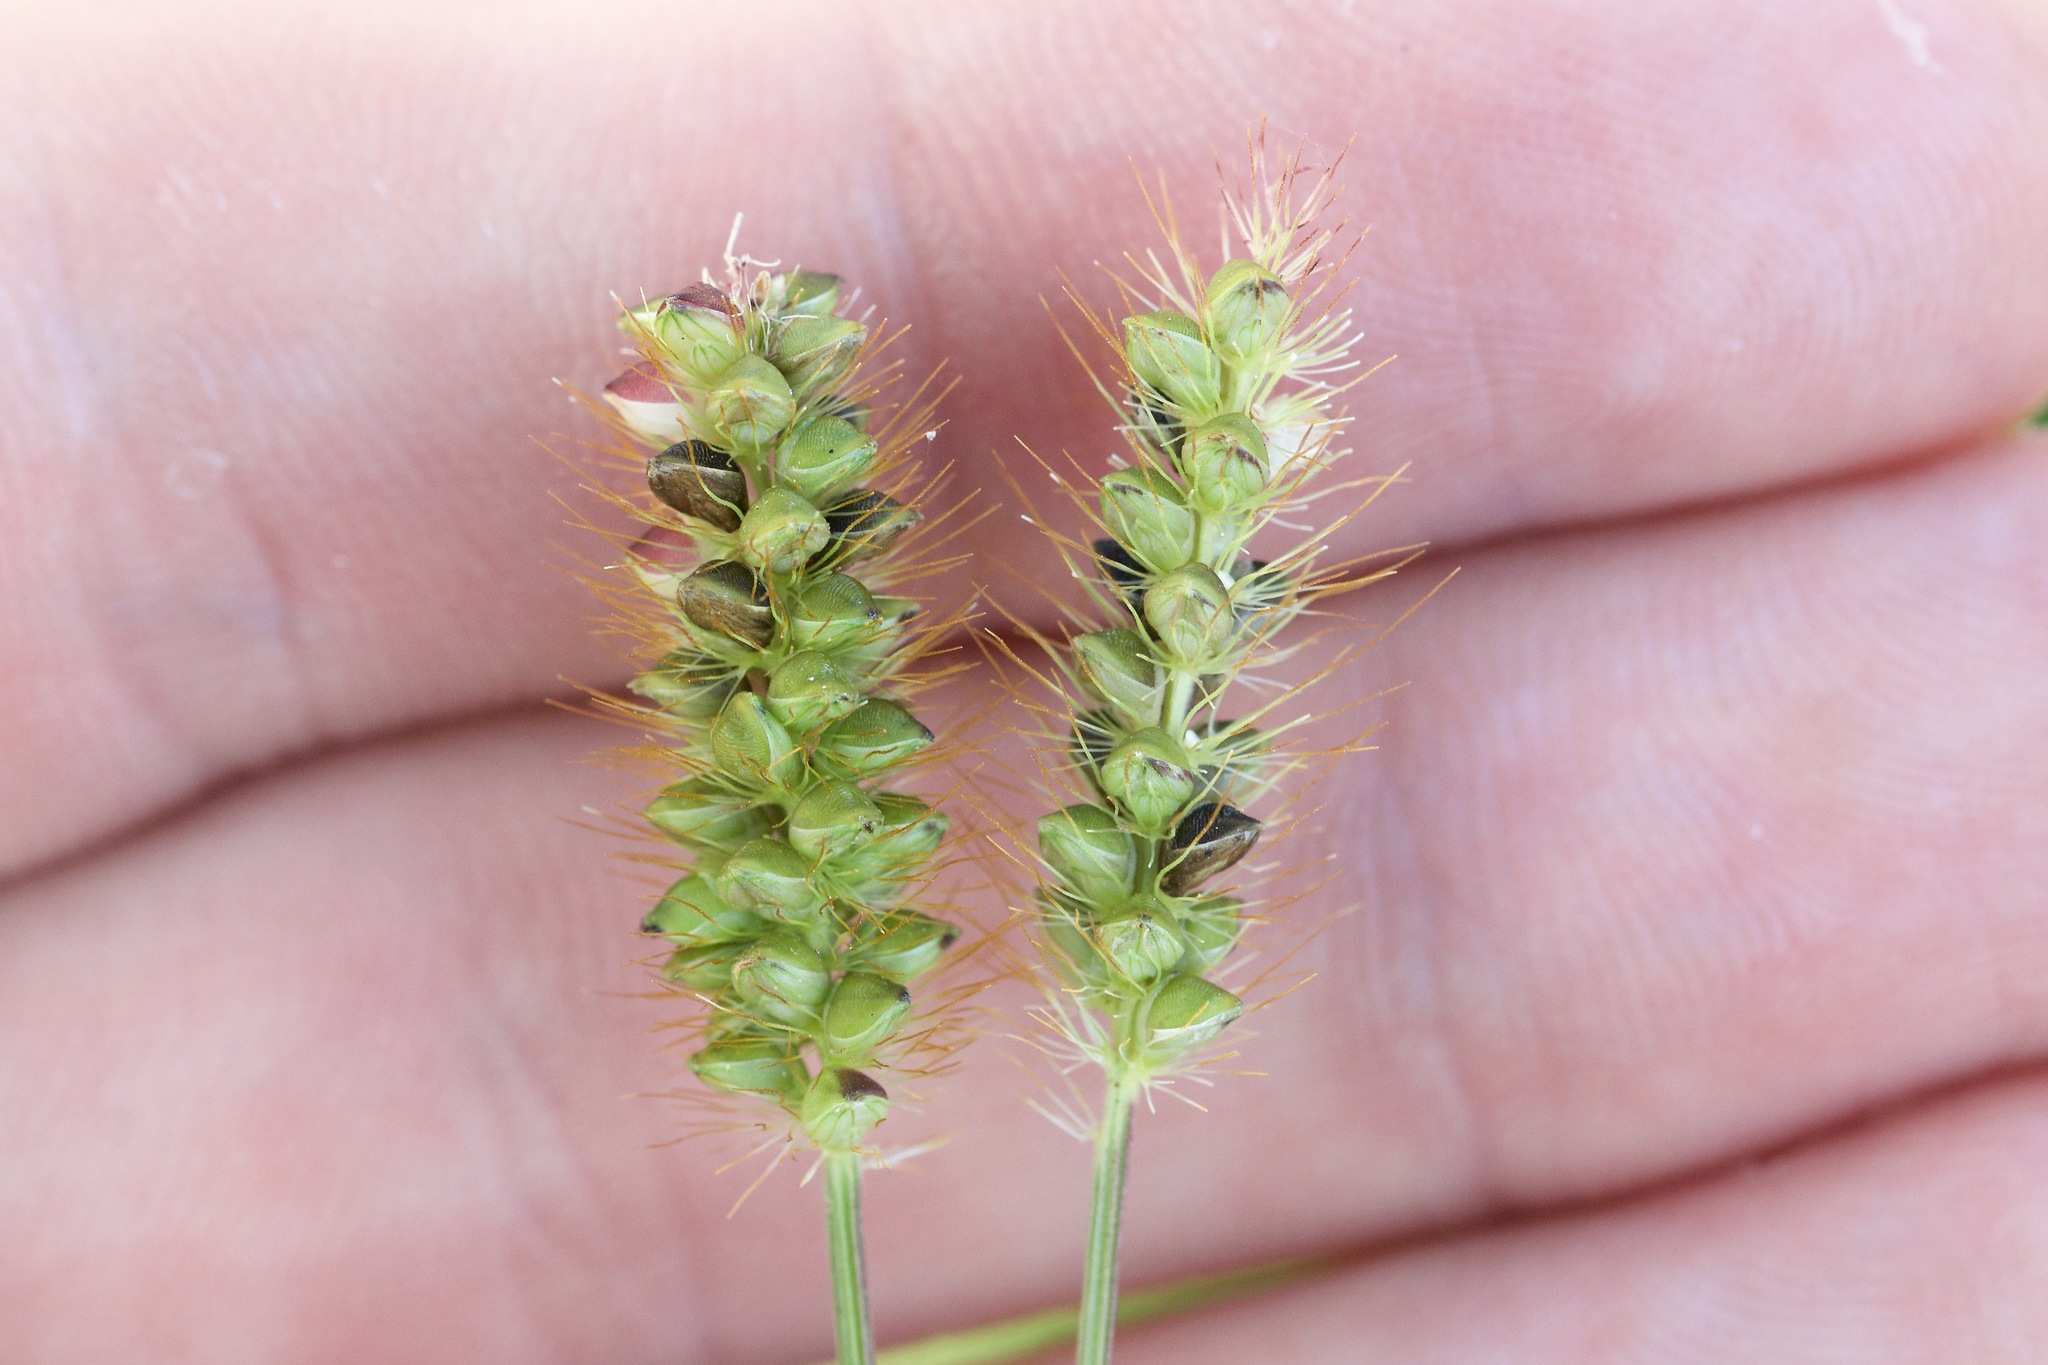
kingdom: Plantae
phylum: Tracheophyta
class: Liliopsida
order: Poales
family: Poaceae
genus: Setaria
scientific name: Setaria pumila
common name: Yellow bristle-grass
